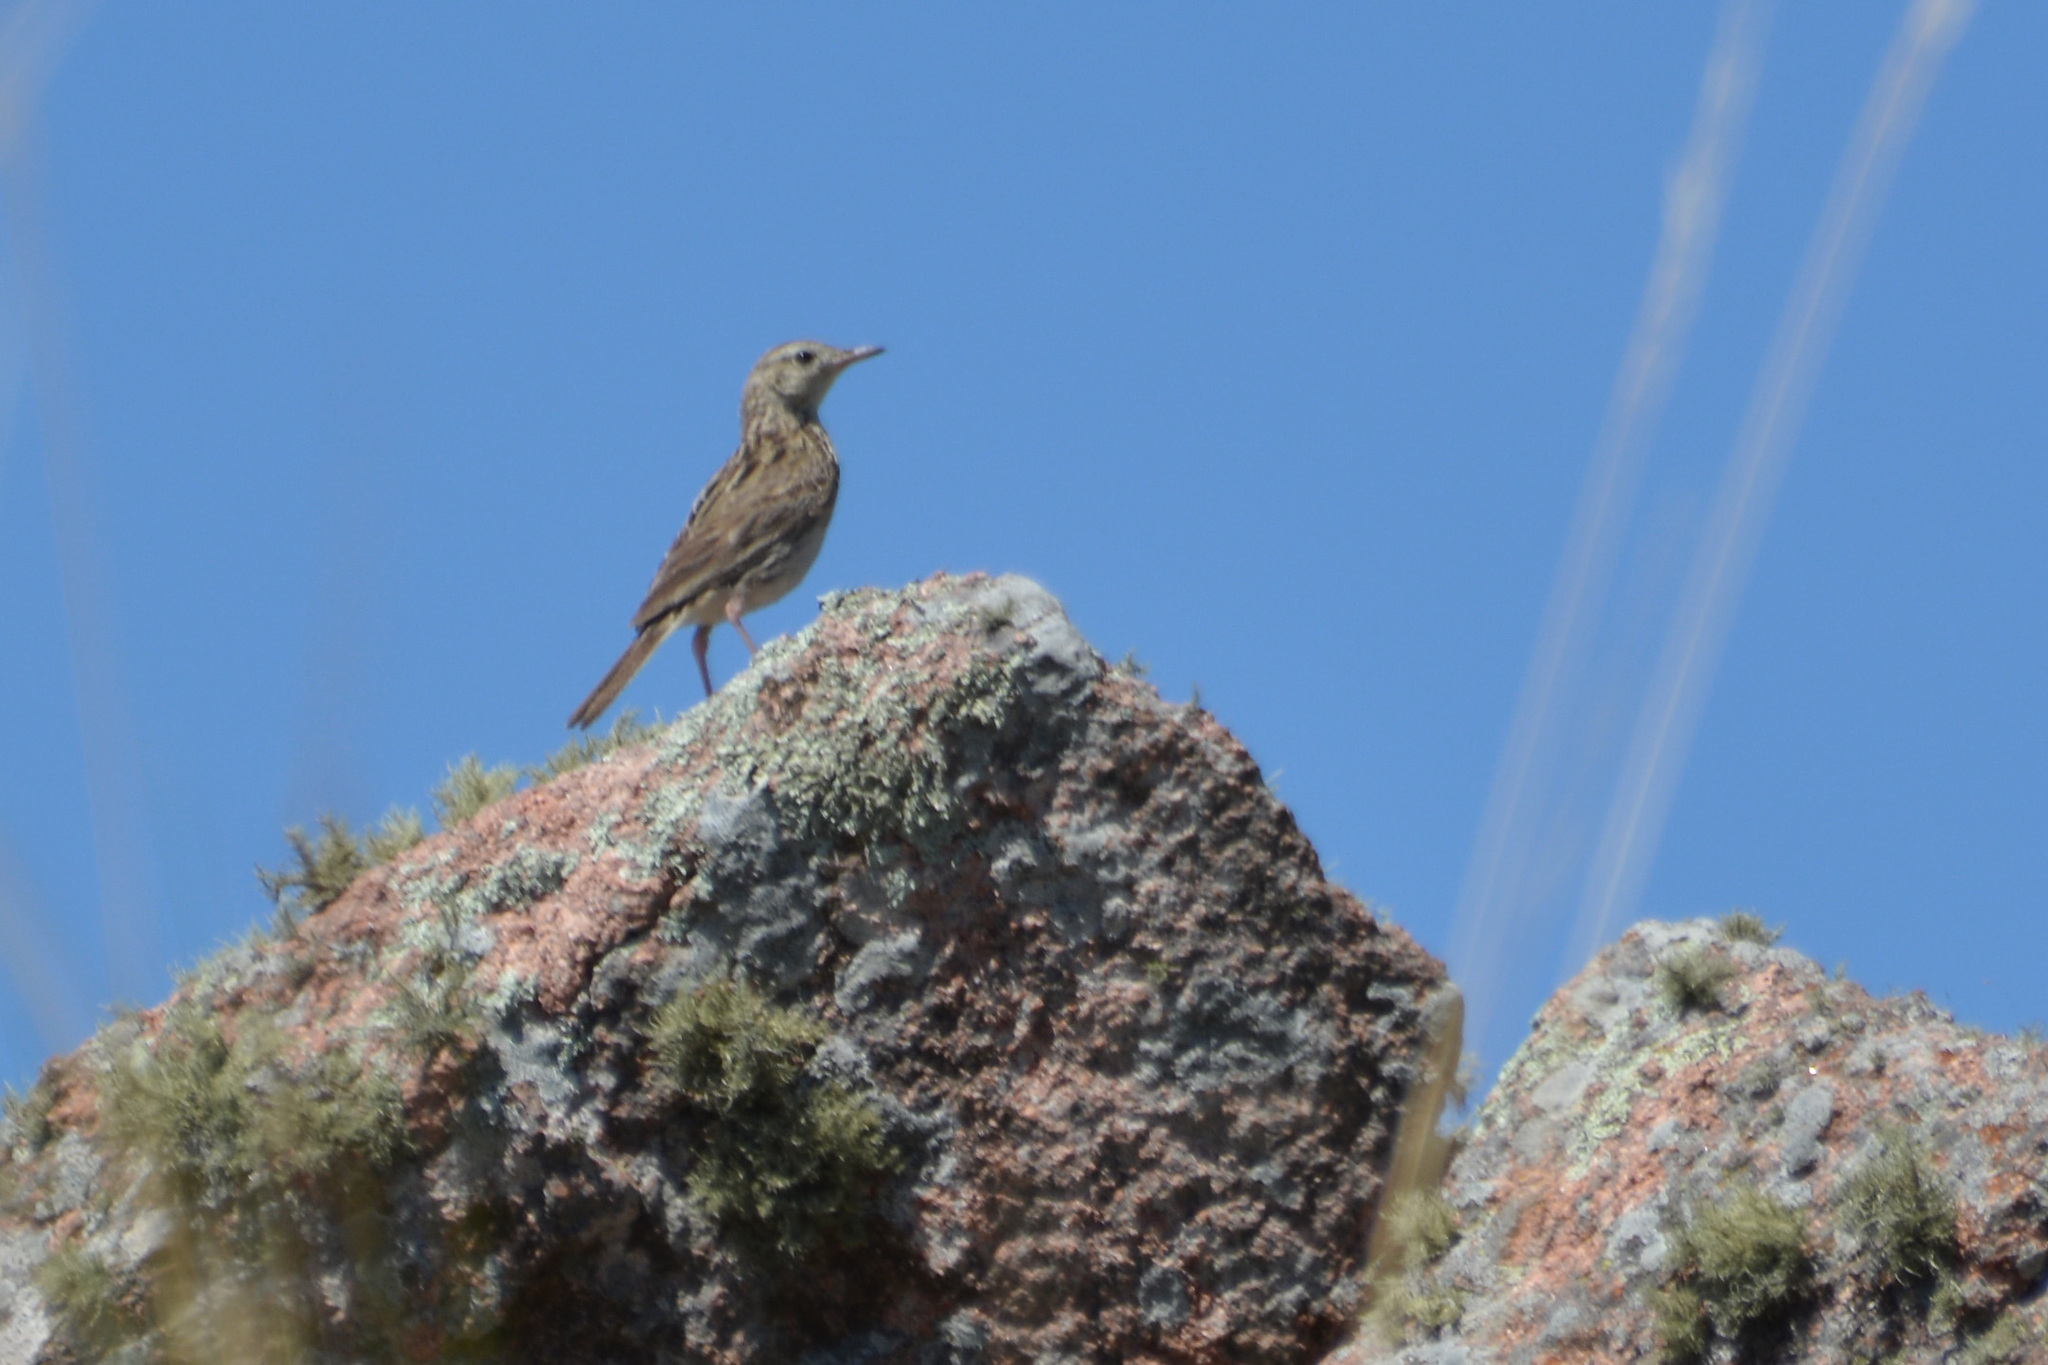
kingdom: Animalia
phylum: Chordata
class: Aves
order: Passeriformes
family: Motacillidae
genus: Anthus
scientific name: Anthus hellmayri
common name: Hellmayr's pipit
